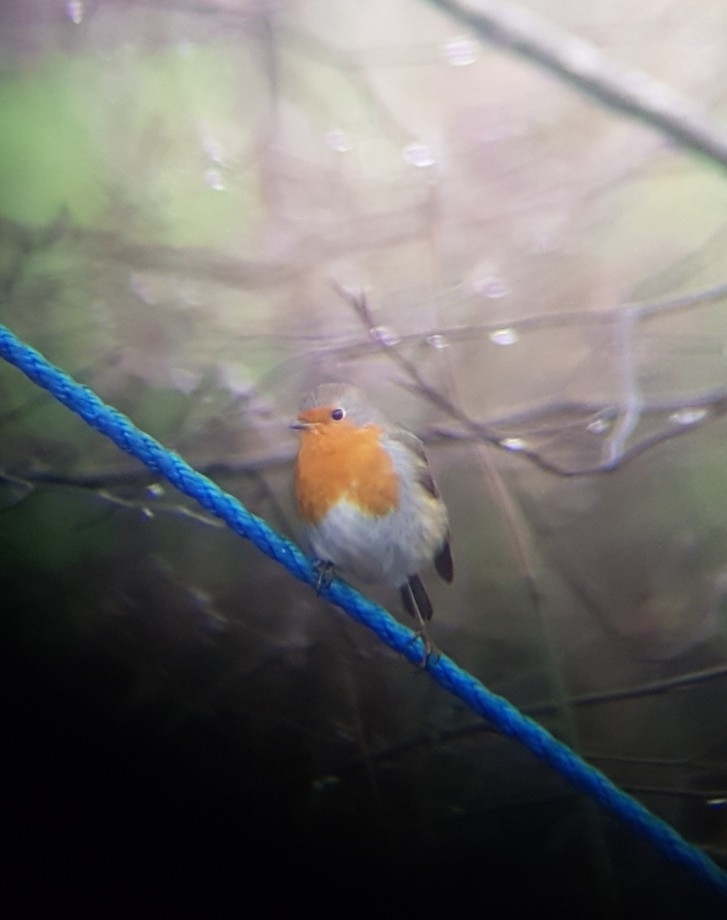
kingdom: Animalia
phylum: Chordata
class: Aves
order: Passeriformes
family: Muscicapidae
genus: Erithacus
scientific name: Erithacus rubecula
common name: European robin
